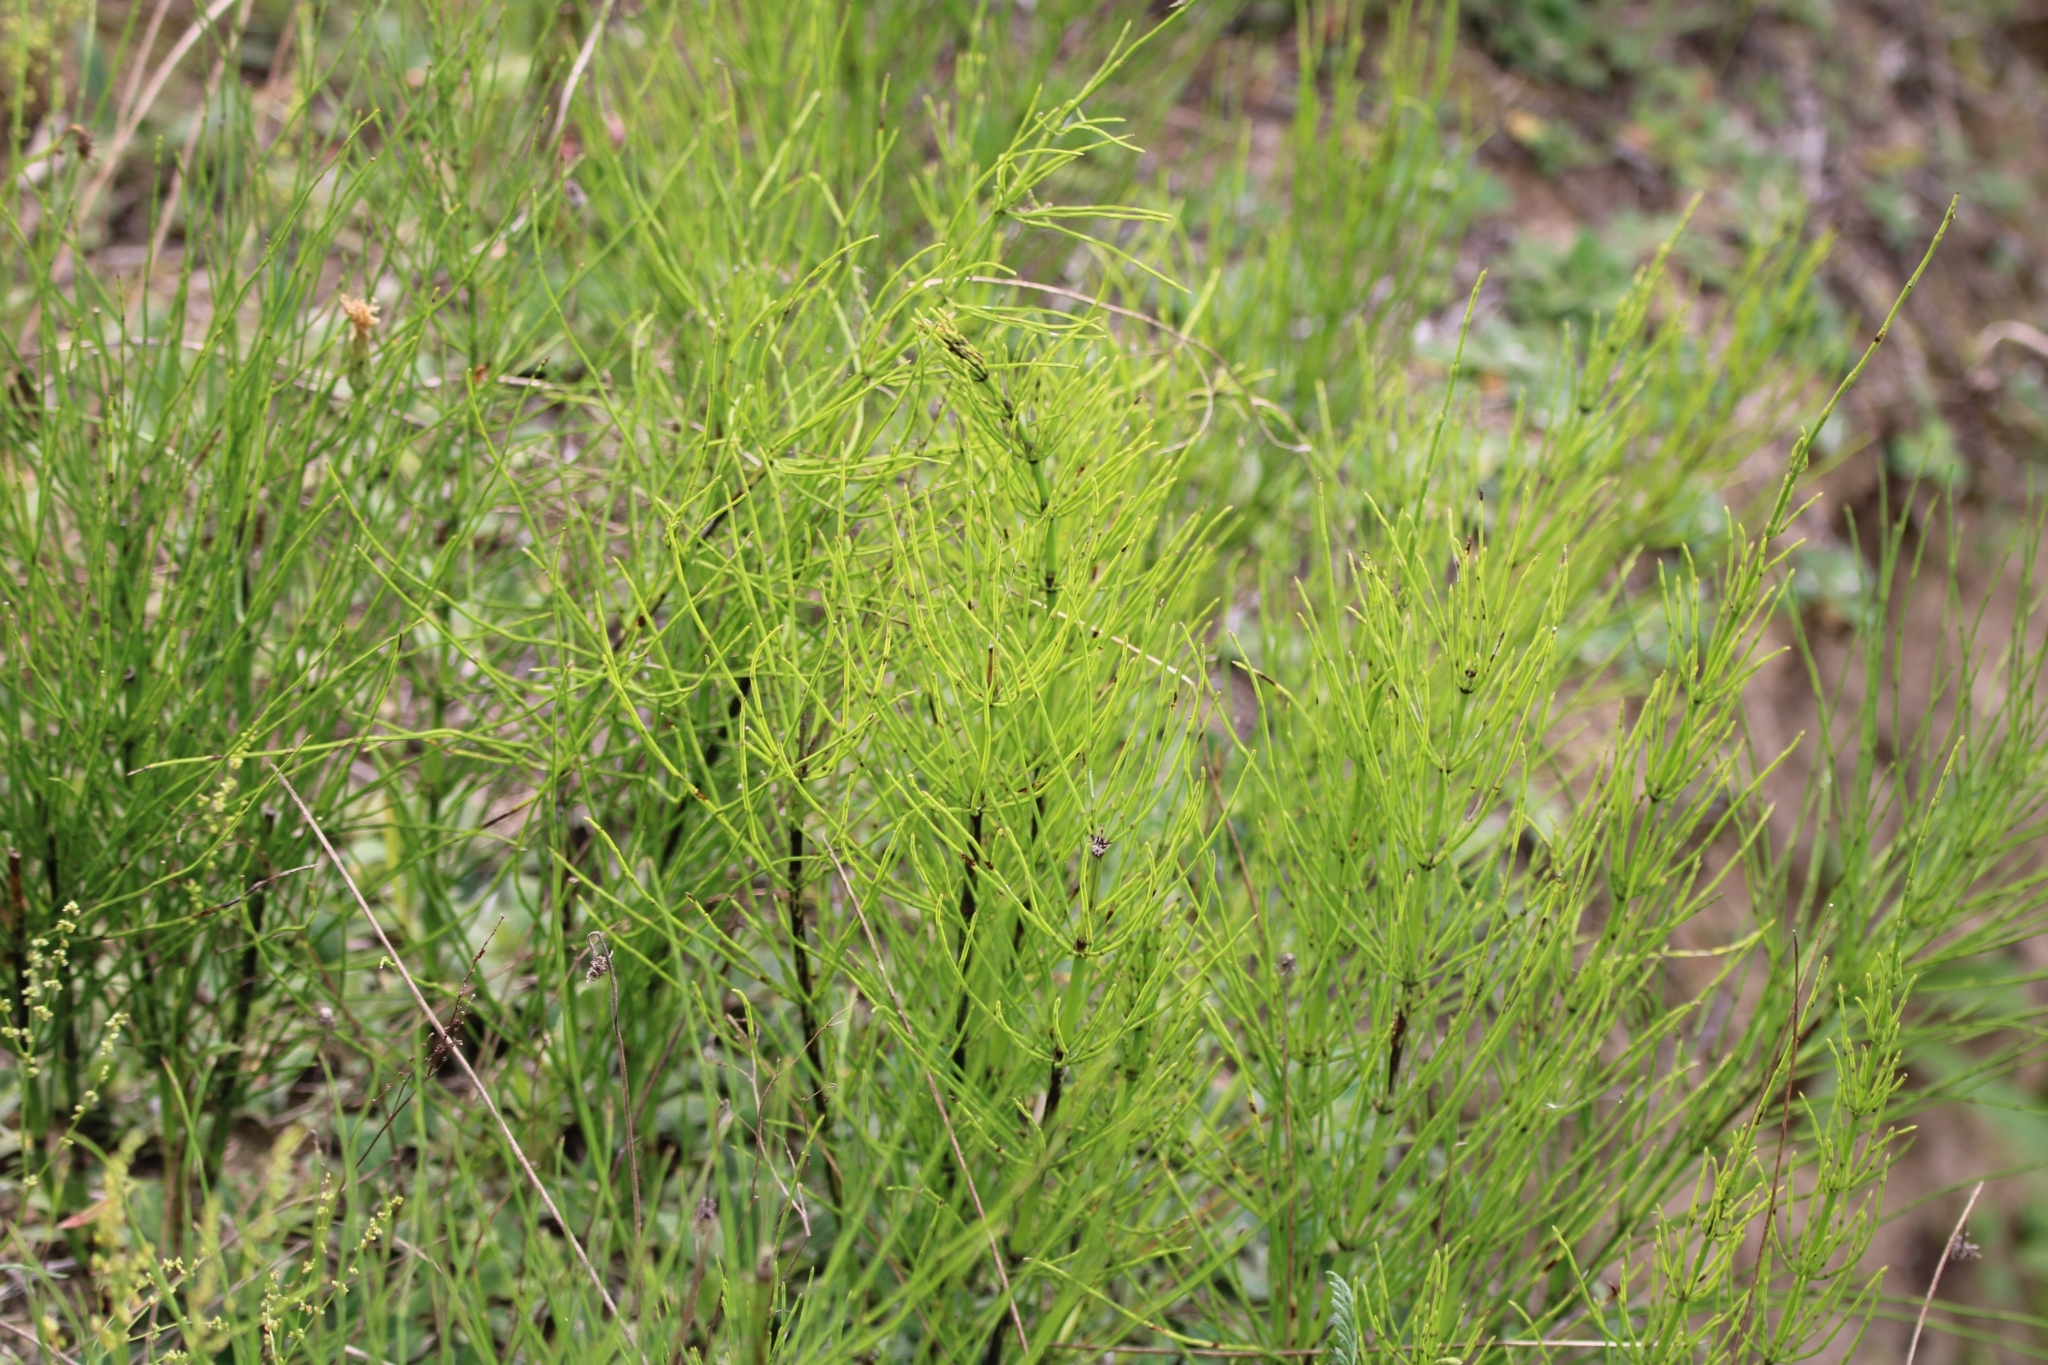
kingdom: Plantae
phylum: Tracheophyta
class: Polypodiopsida
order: Equisetales
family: Equisetaceae
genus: Equisetum
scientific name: Equisetum arvense
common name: Field horsetail
